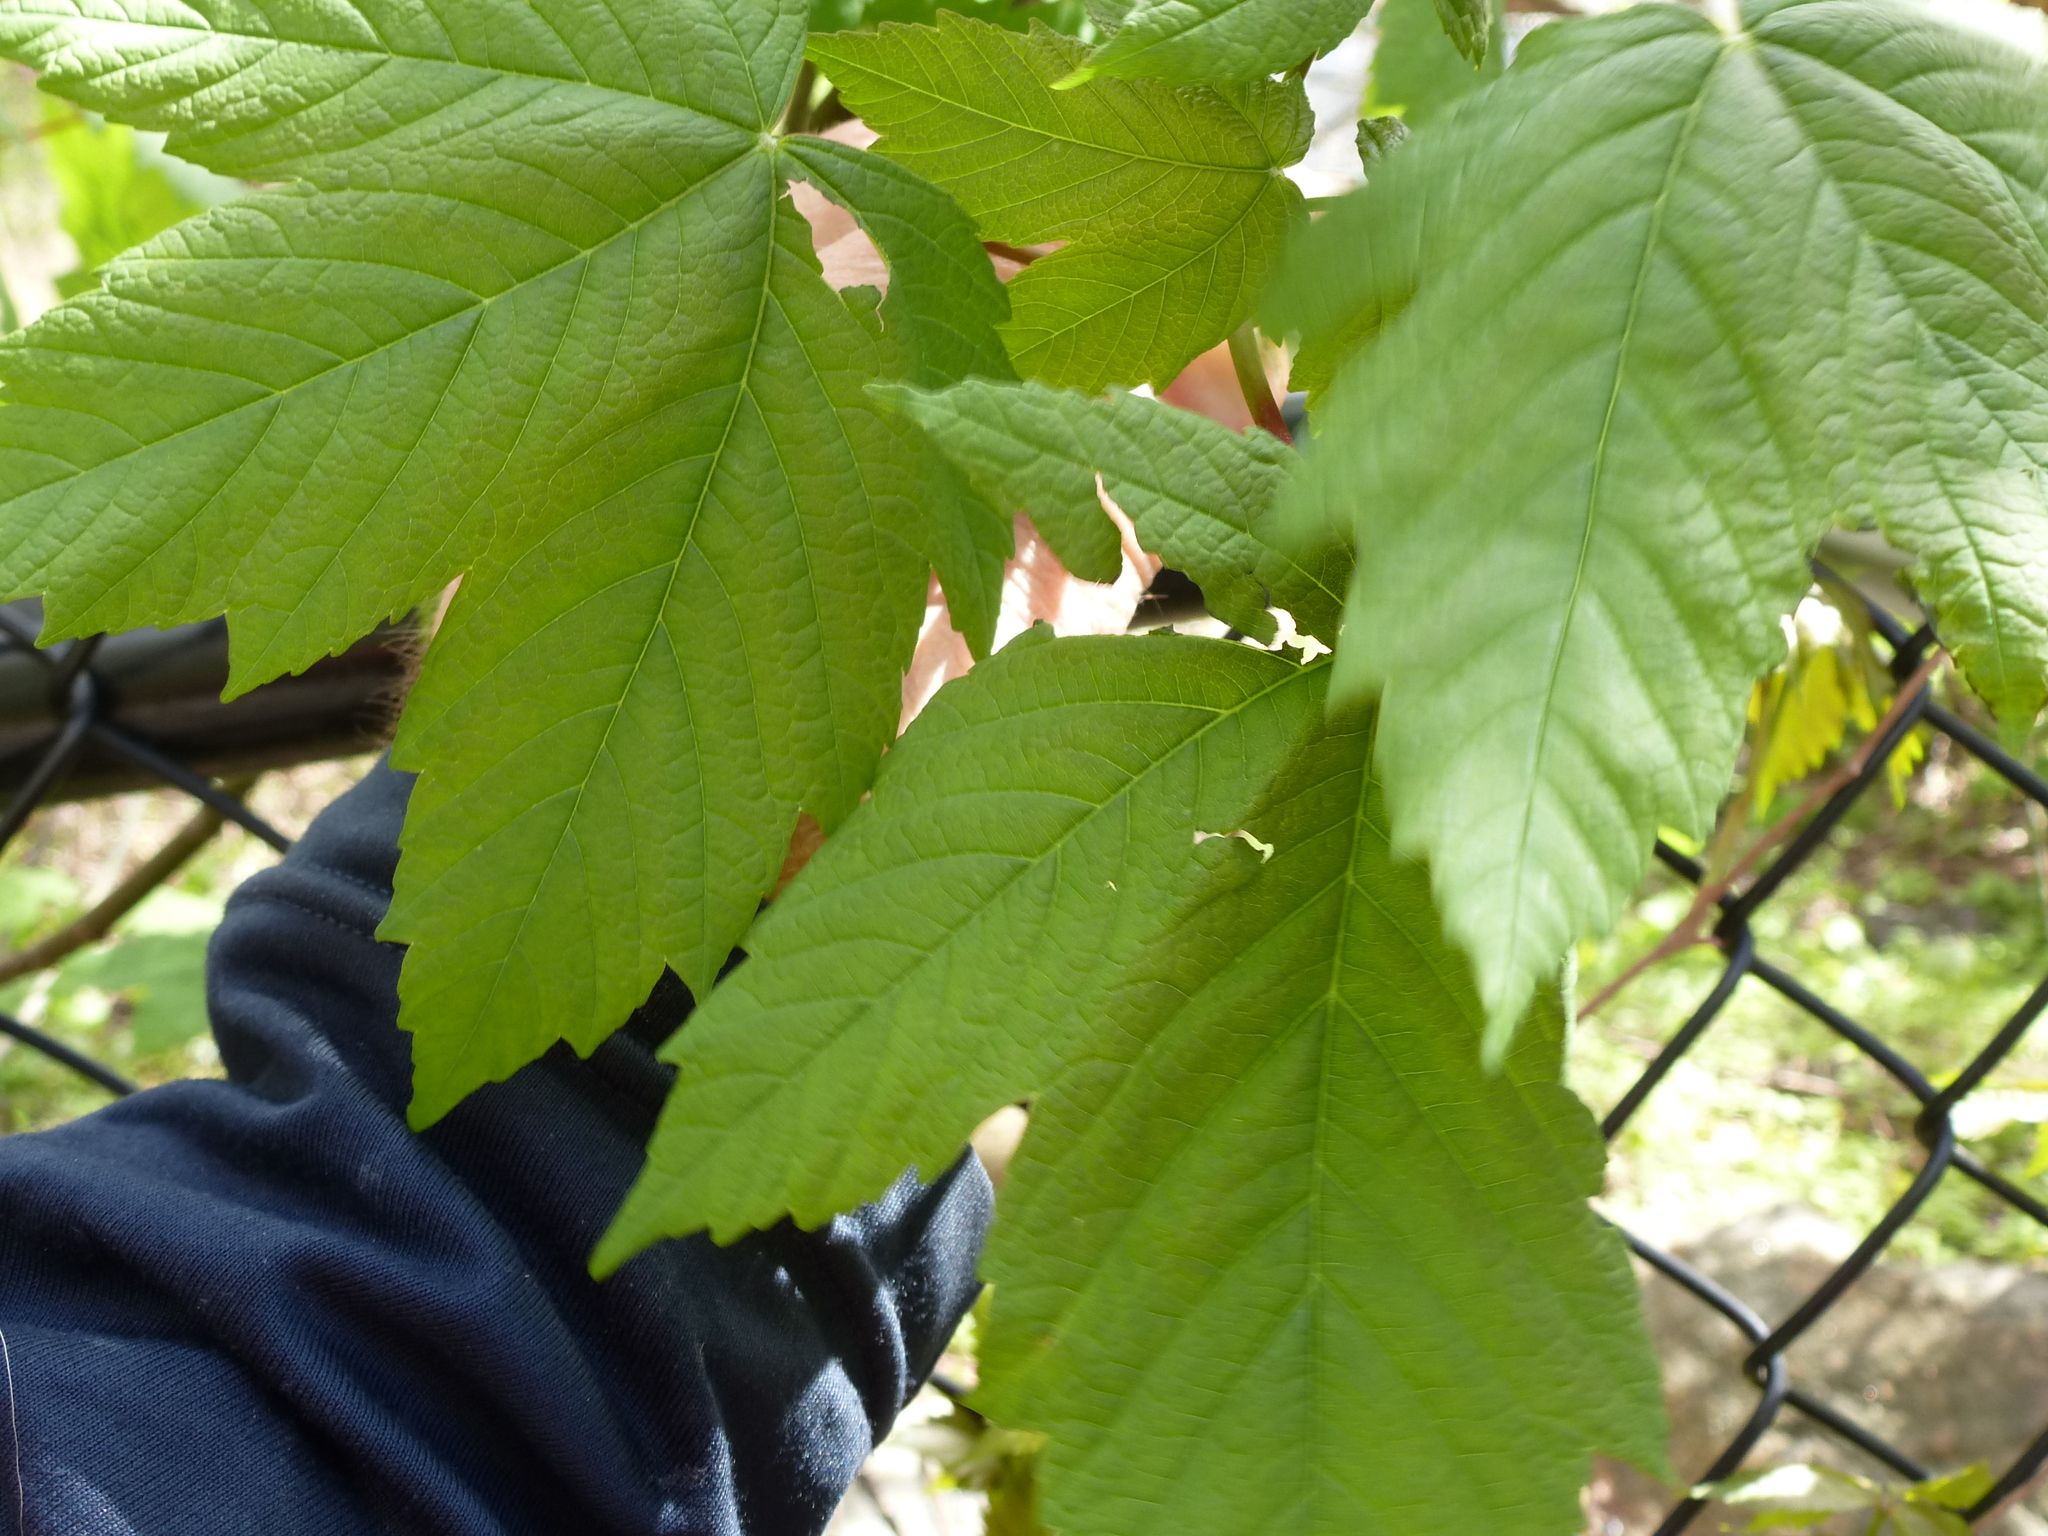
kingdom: Plantae
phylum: Tracheophyta
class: Magnoliopsida
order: Sapindales
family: Sapindaceae
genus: Acer
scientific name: Acer negundo
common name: Ashleaf maple
